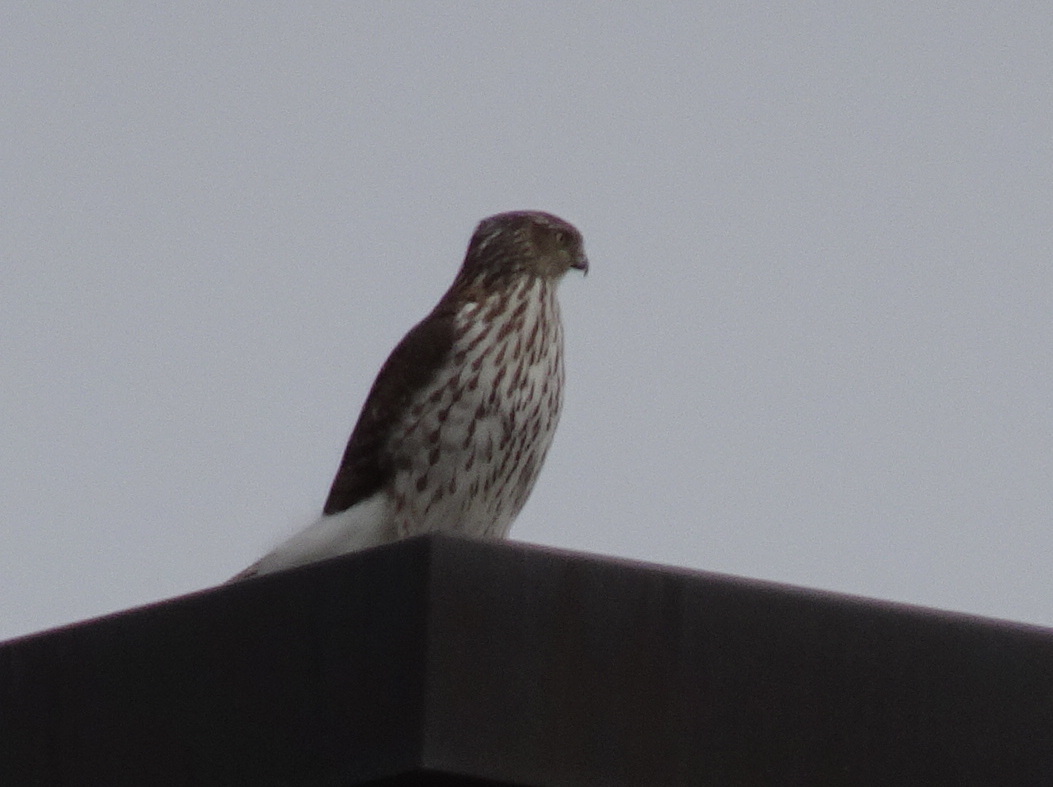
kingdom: Animalia
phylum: Chordata
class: Aves
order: Accipitriformes
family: Accipitridae
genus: Accipiter
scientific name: Accipiter cooperii
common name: Cooper's hawk
